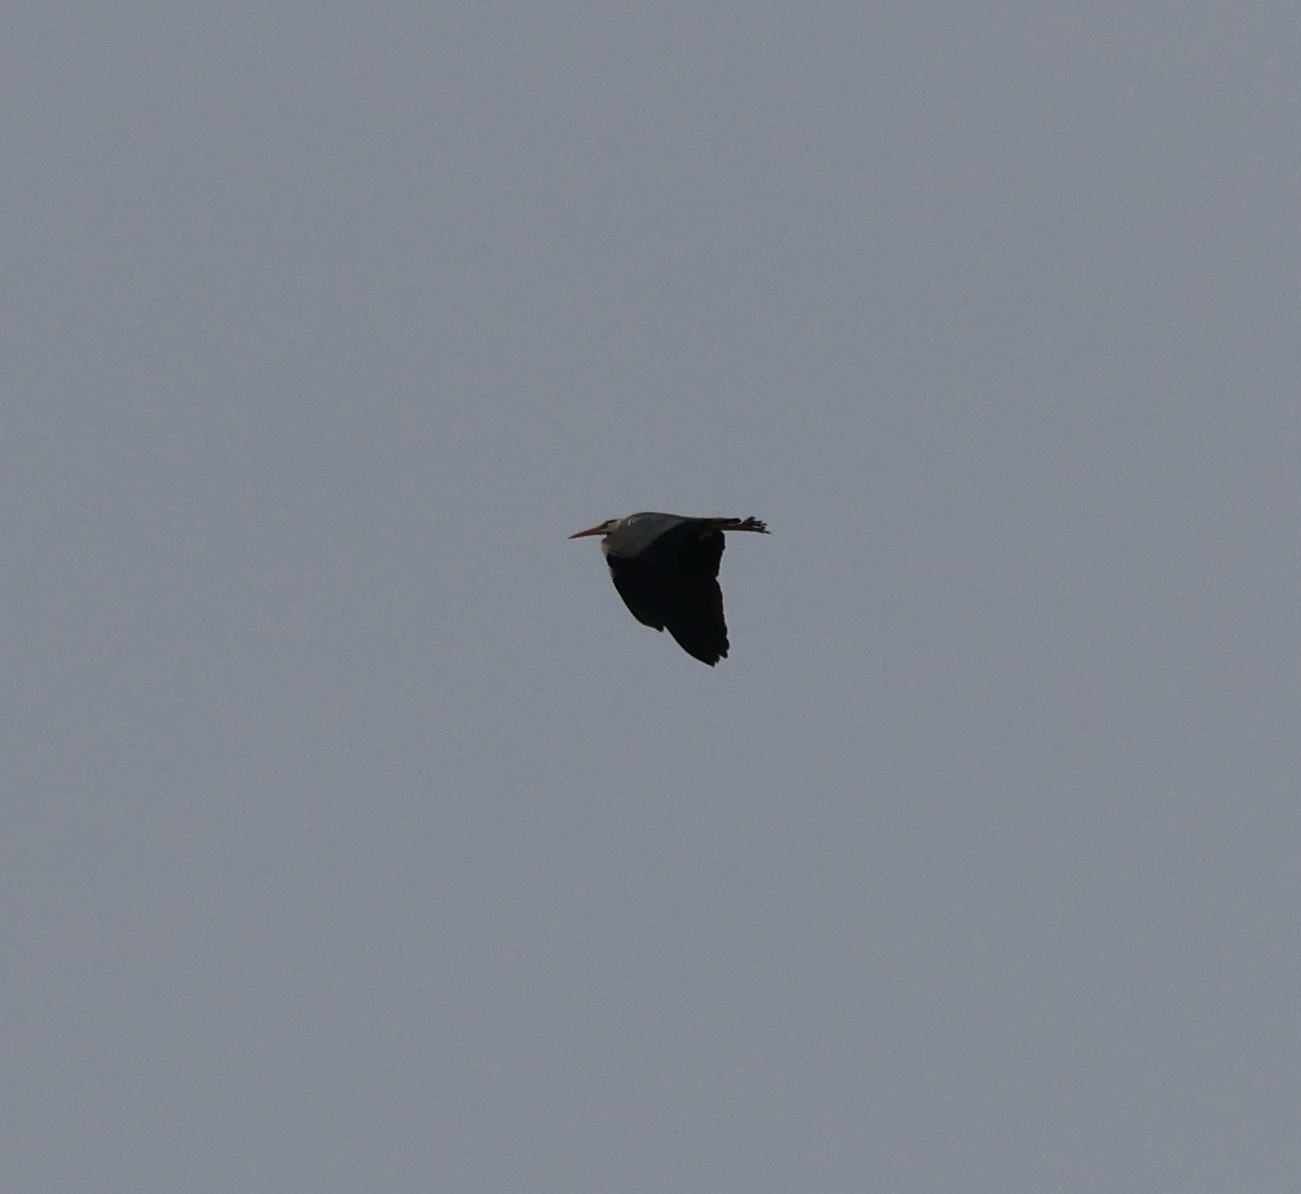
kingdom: Animalia
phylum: Chordata
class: Aves
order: Pelecaniformes
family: Ardeidae
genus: Ardea
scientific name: Ardea cinerea
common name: Grey heron
